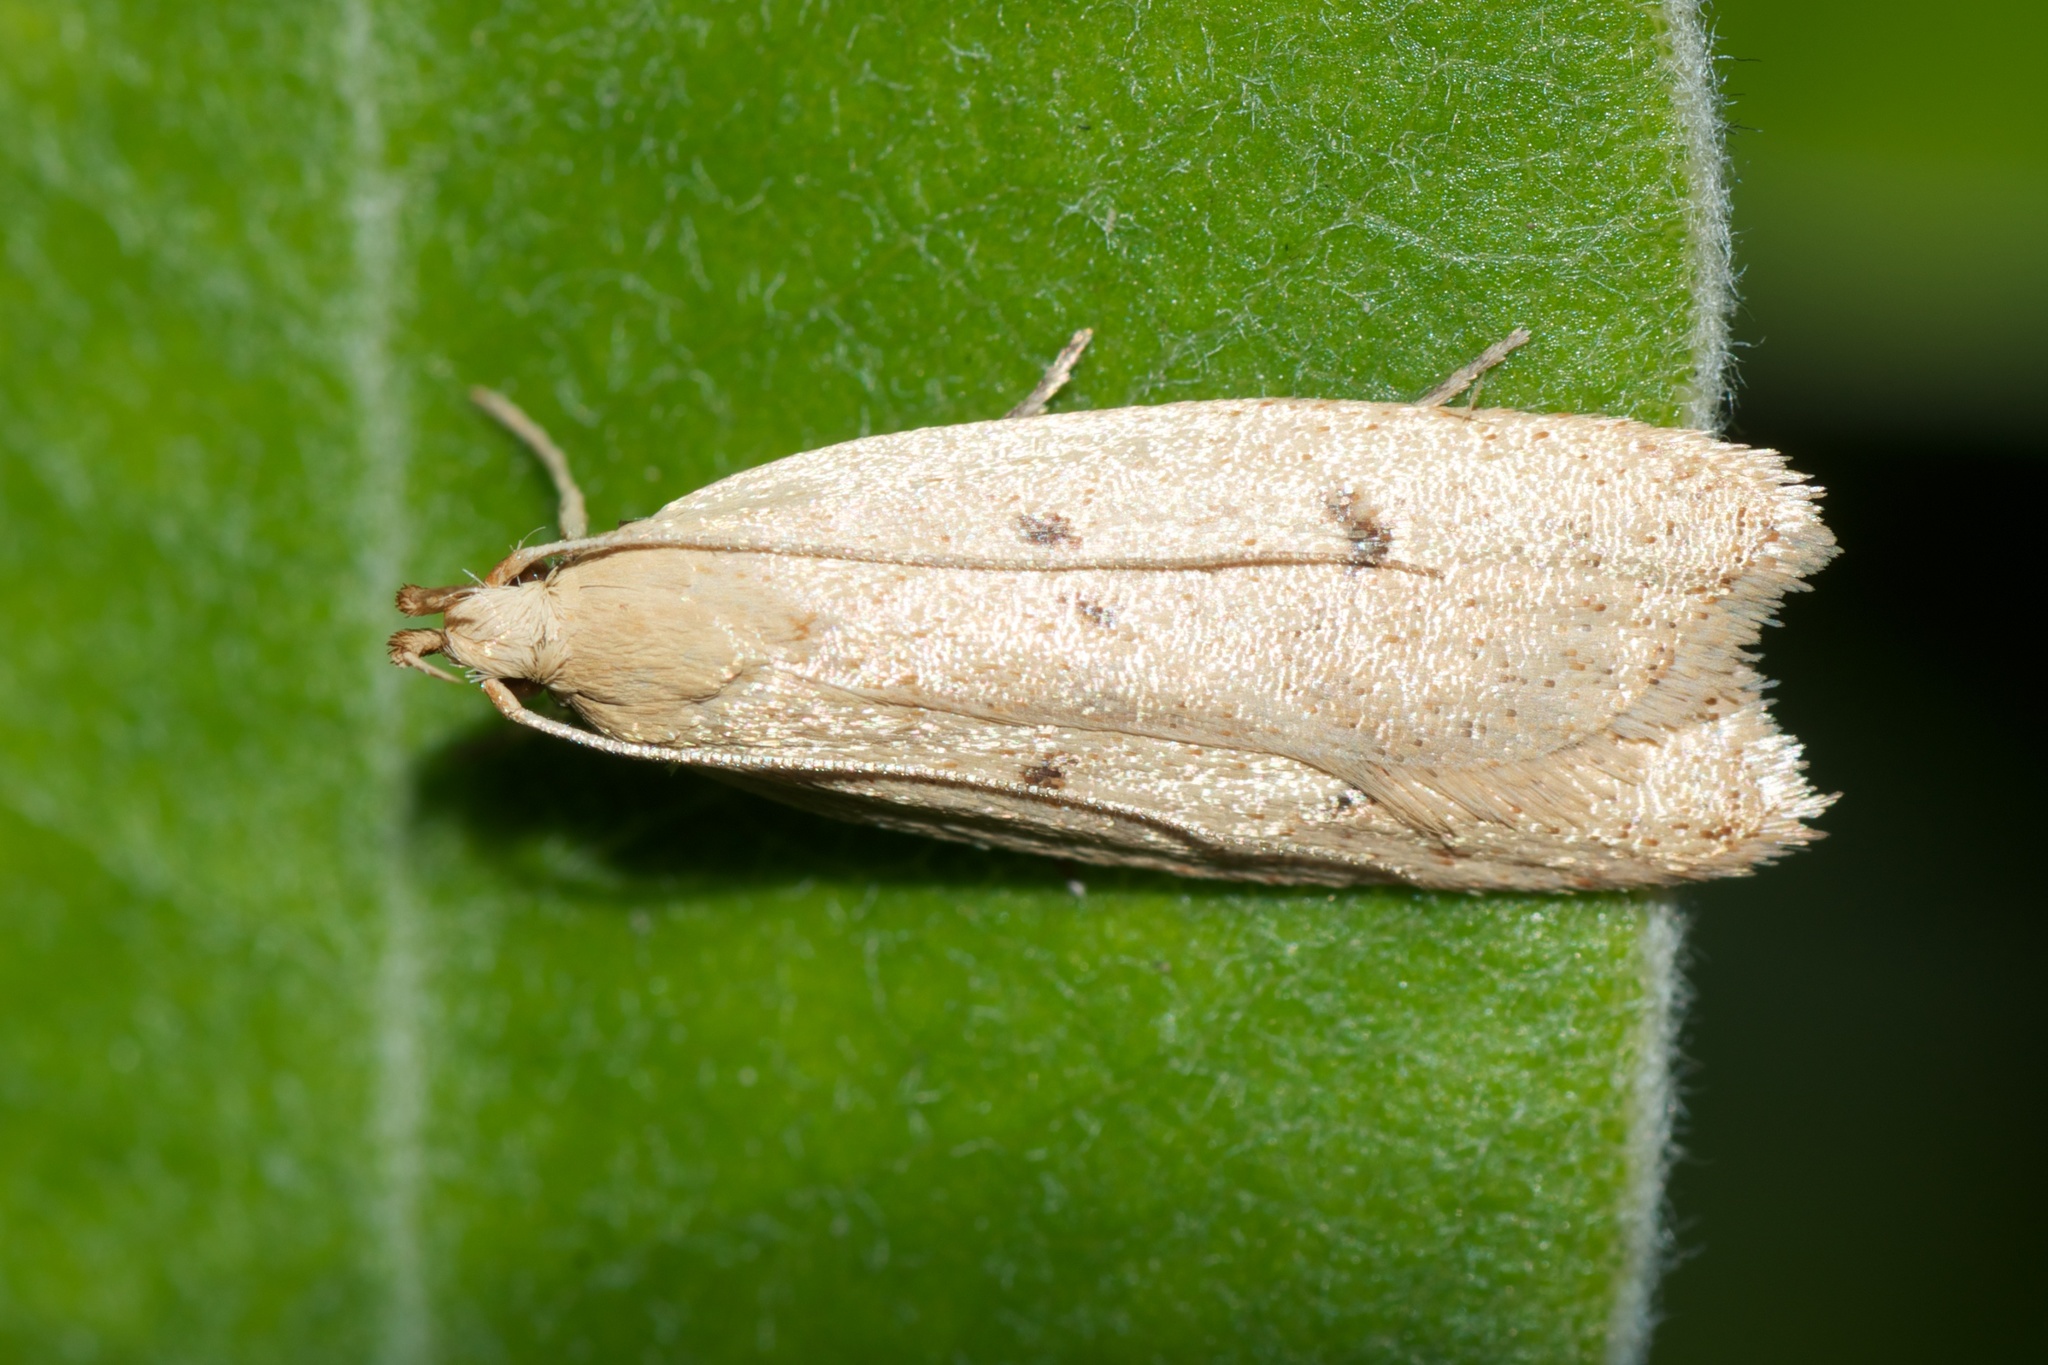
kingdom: Animalia
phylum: Arthropoda
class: Insecta
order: Lepidoptera
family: Oecophoridae
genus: Gymnobathra
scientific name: Gymnobathra sarcoxantha
